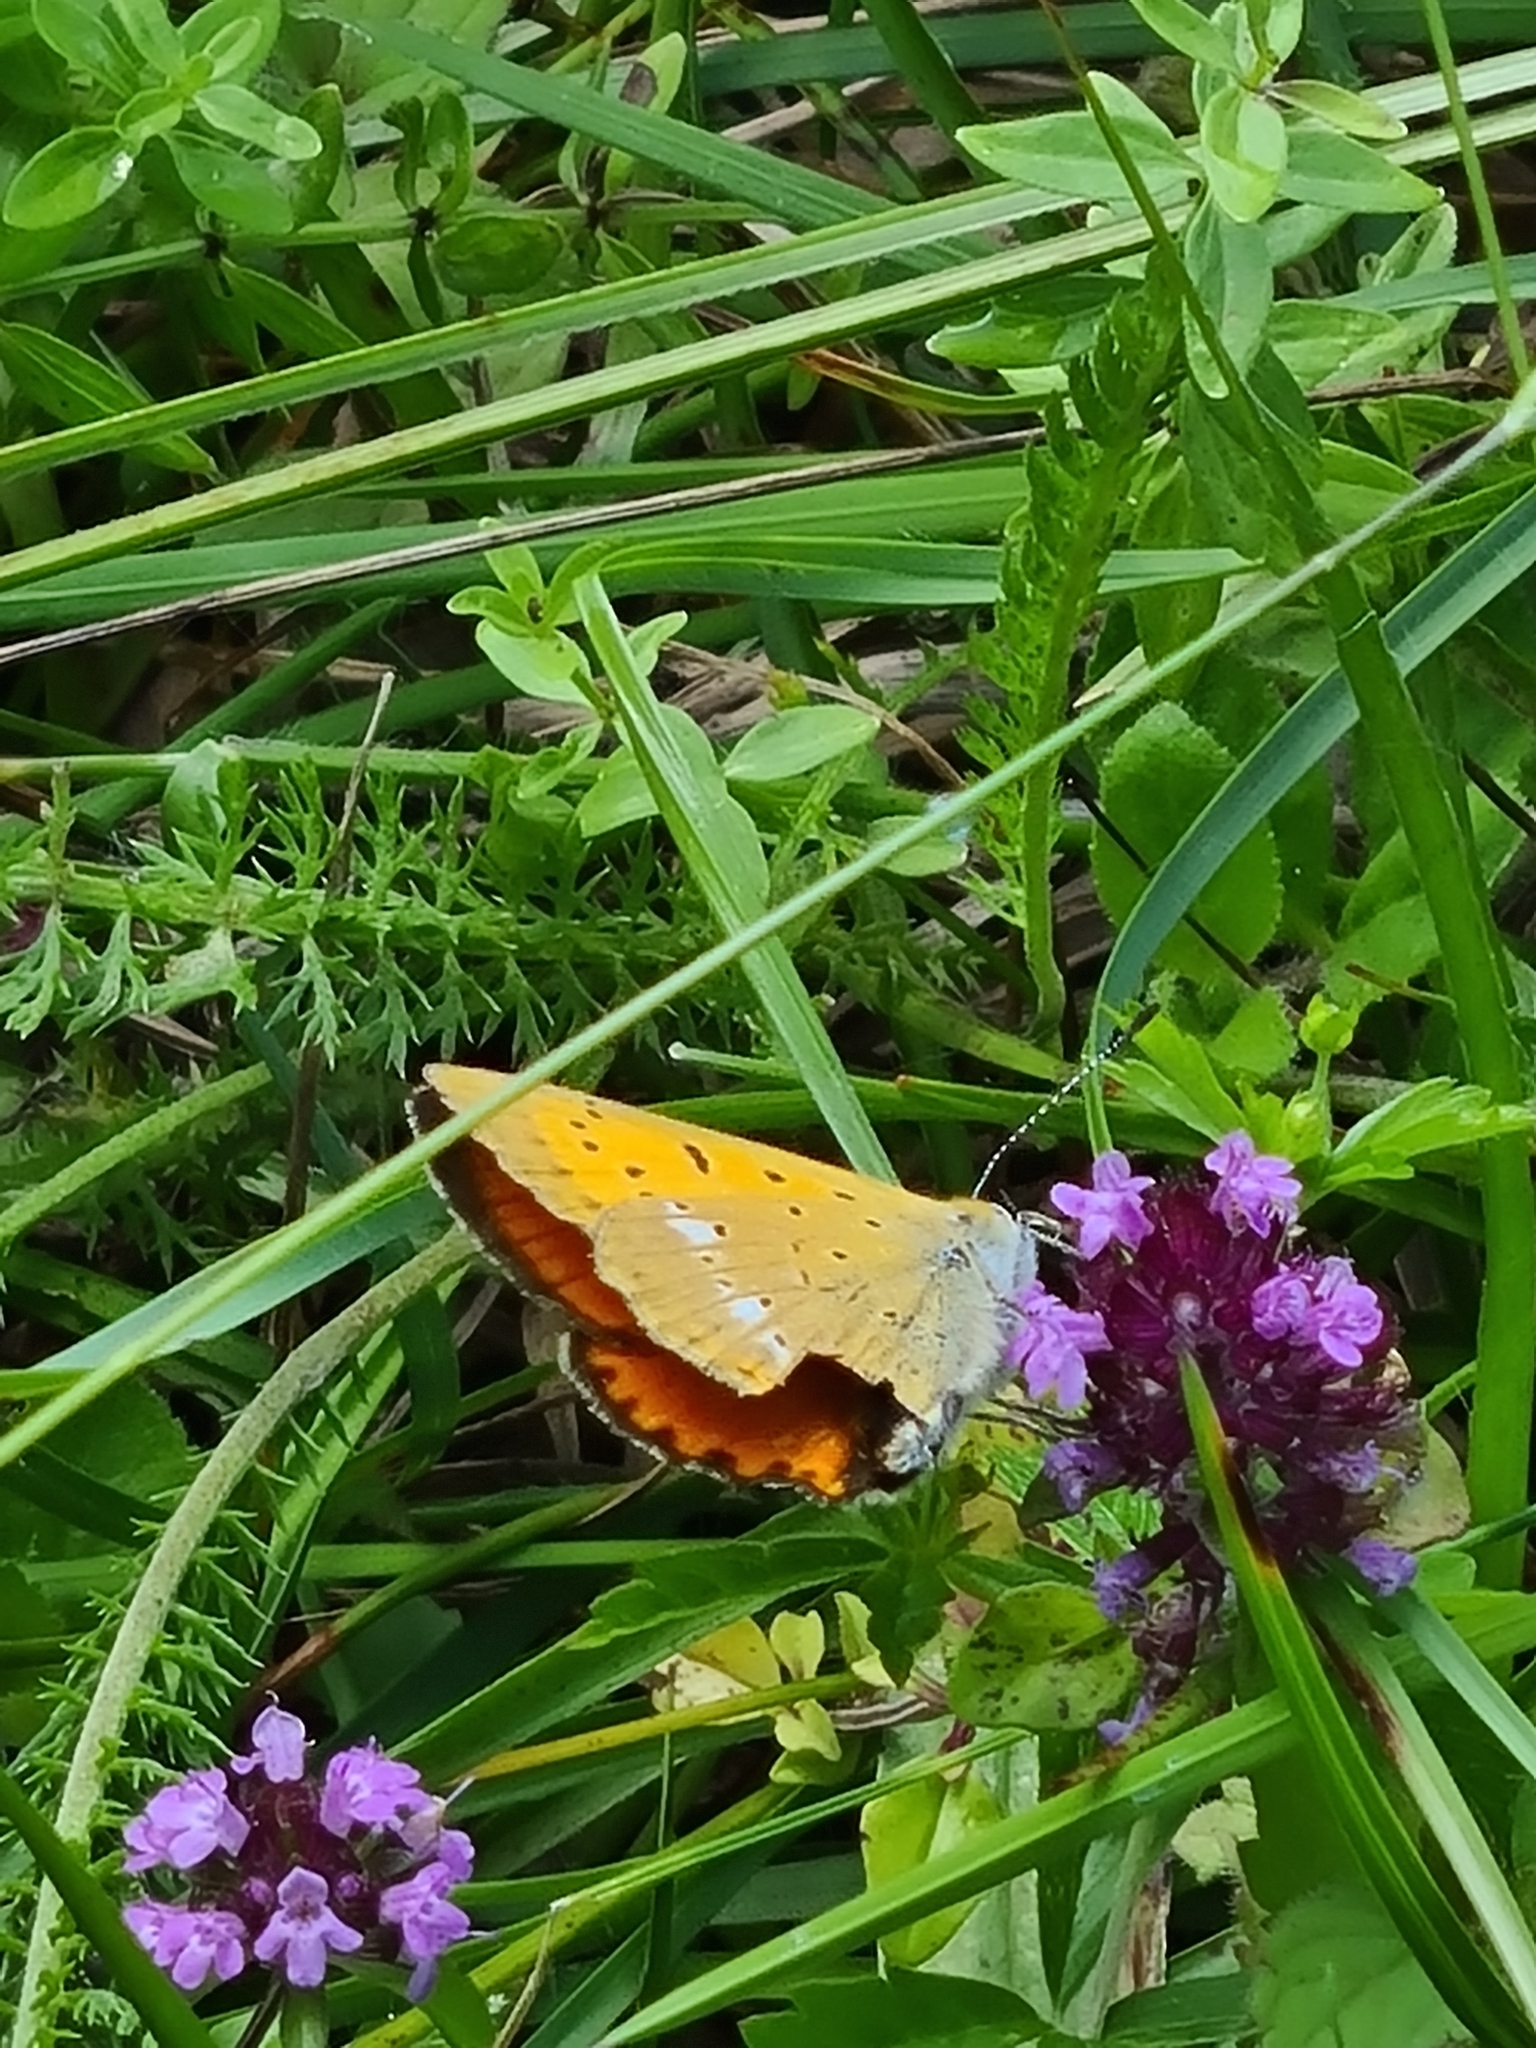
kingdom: Animalia
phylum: Arthropoda
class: Insecta
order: Lepidoptera
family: Lycaenidae
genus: Lycaena
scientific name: Lycaena virgaureae
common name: Scarce copper
